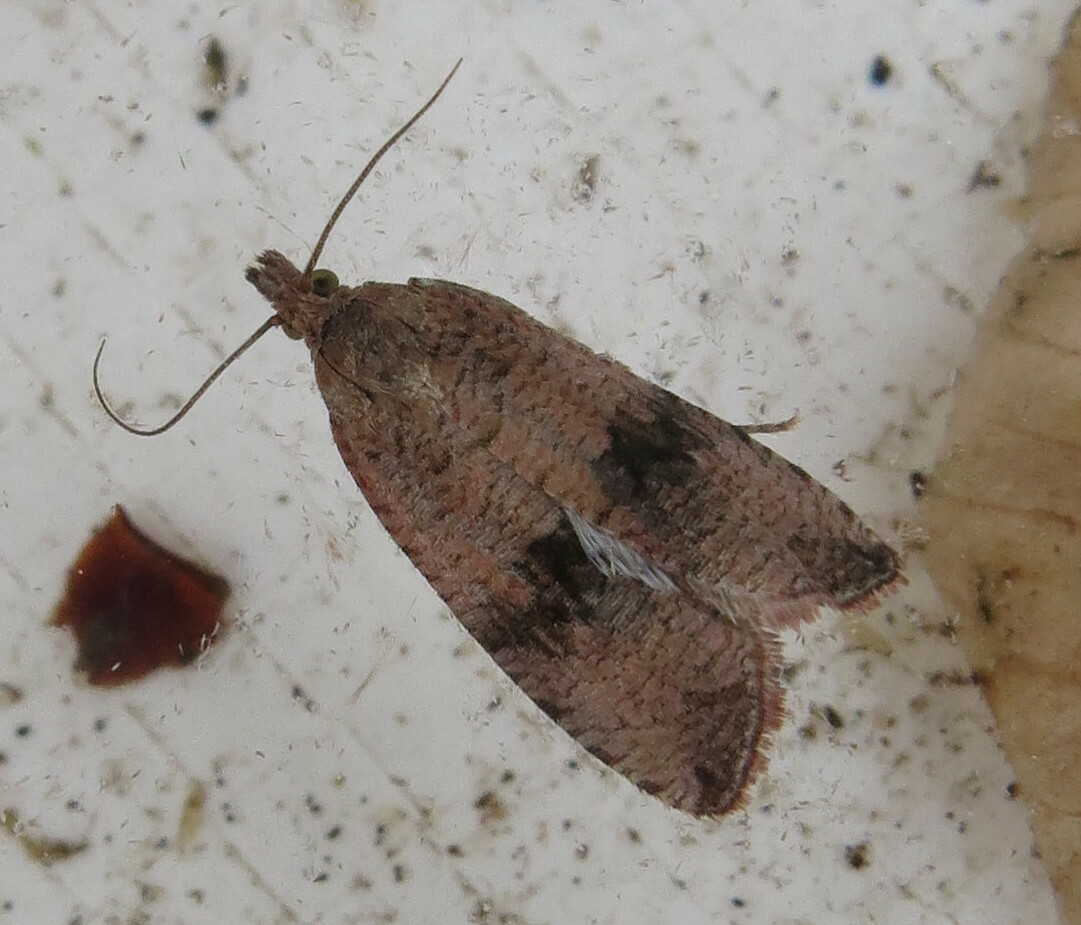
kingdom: Animalia
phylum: Arthropoda
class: Insecta
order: Lepidoptera
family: Tortricidae
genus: Celypha
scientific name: Celypha striana
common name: Barred marble
